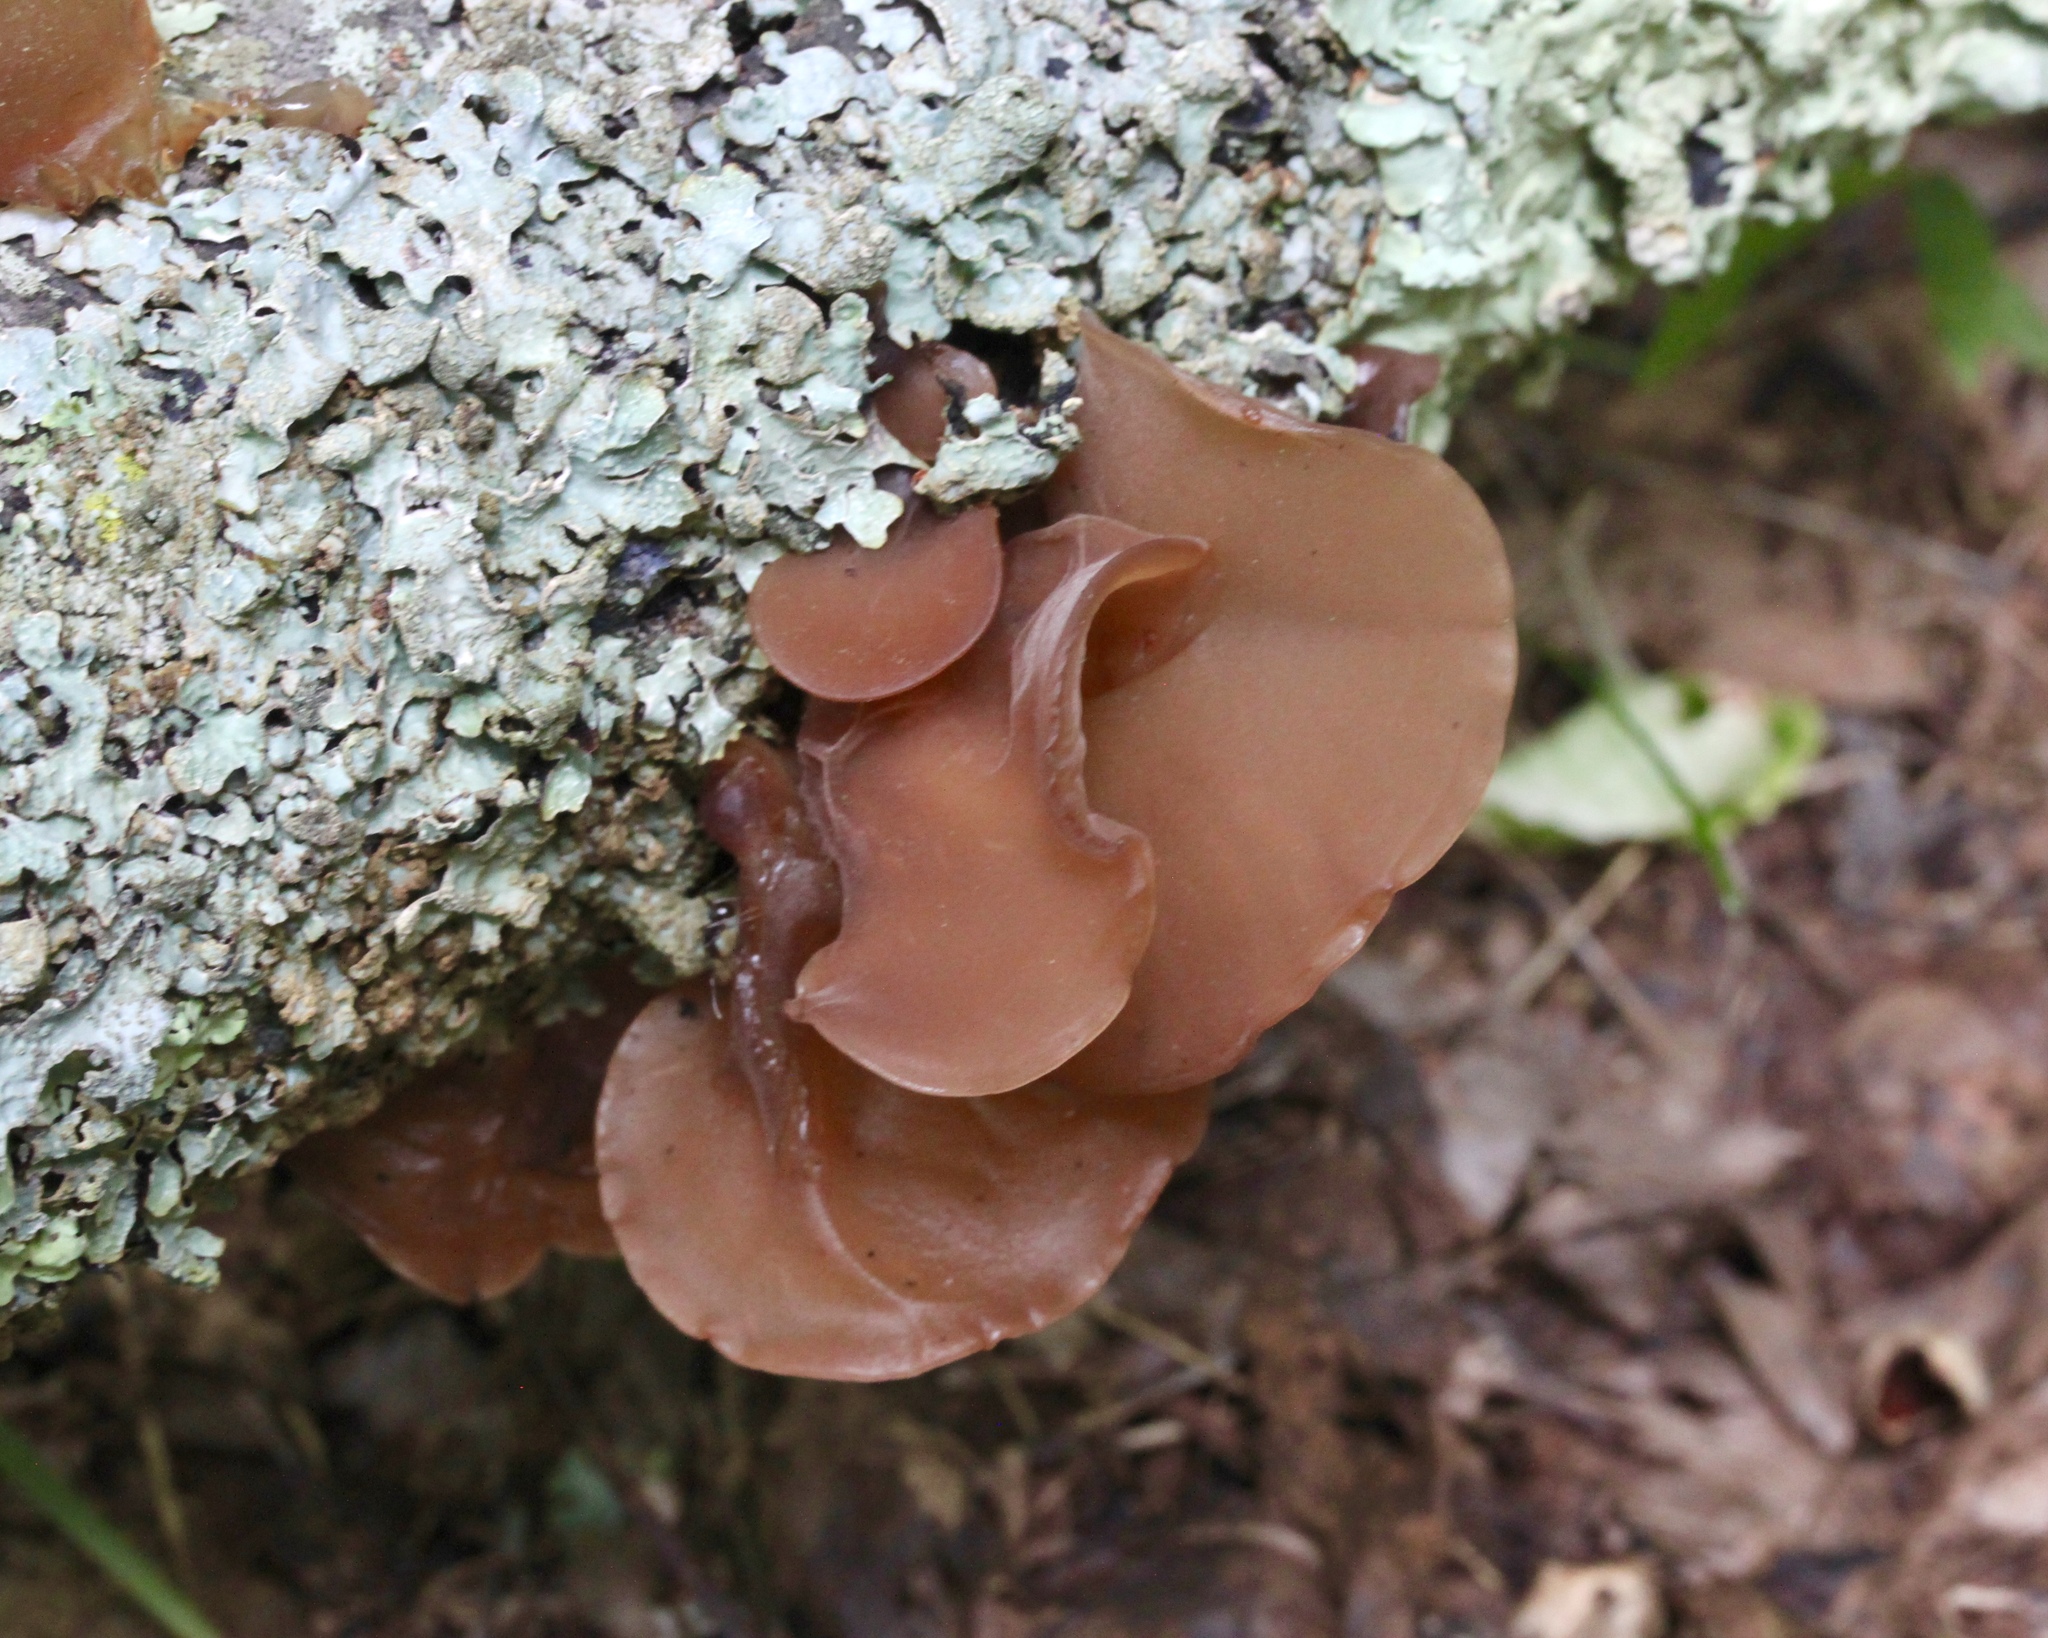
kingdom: Fungi
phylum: Basidiomycota
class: Agaricomycetes
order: Auriculariales
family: Auriculariaceae
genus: Auricularia
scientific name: Auricularia americana
